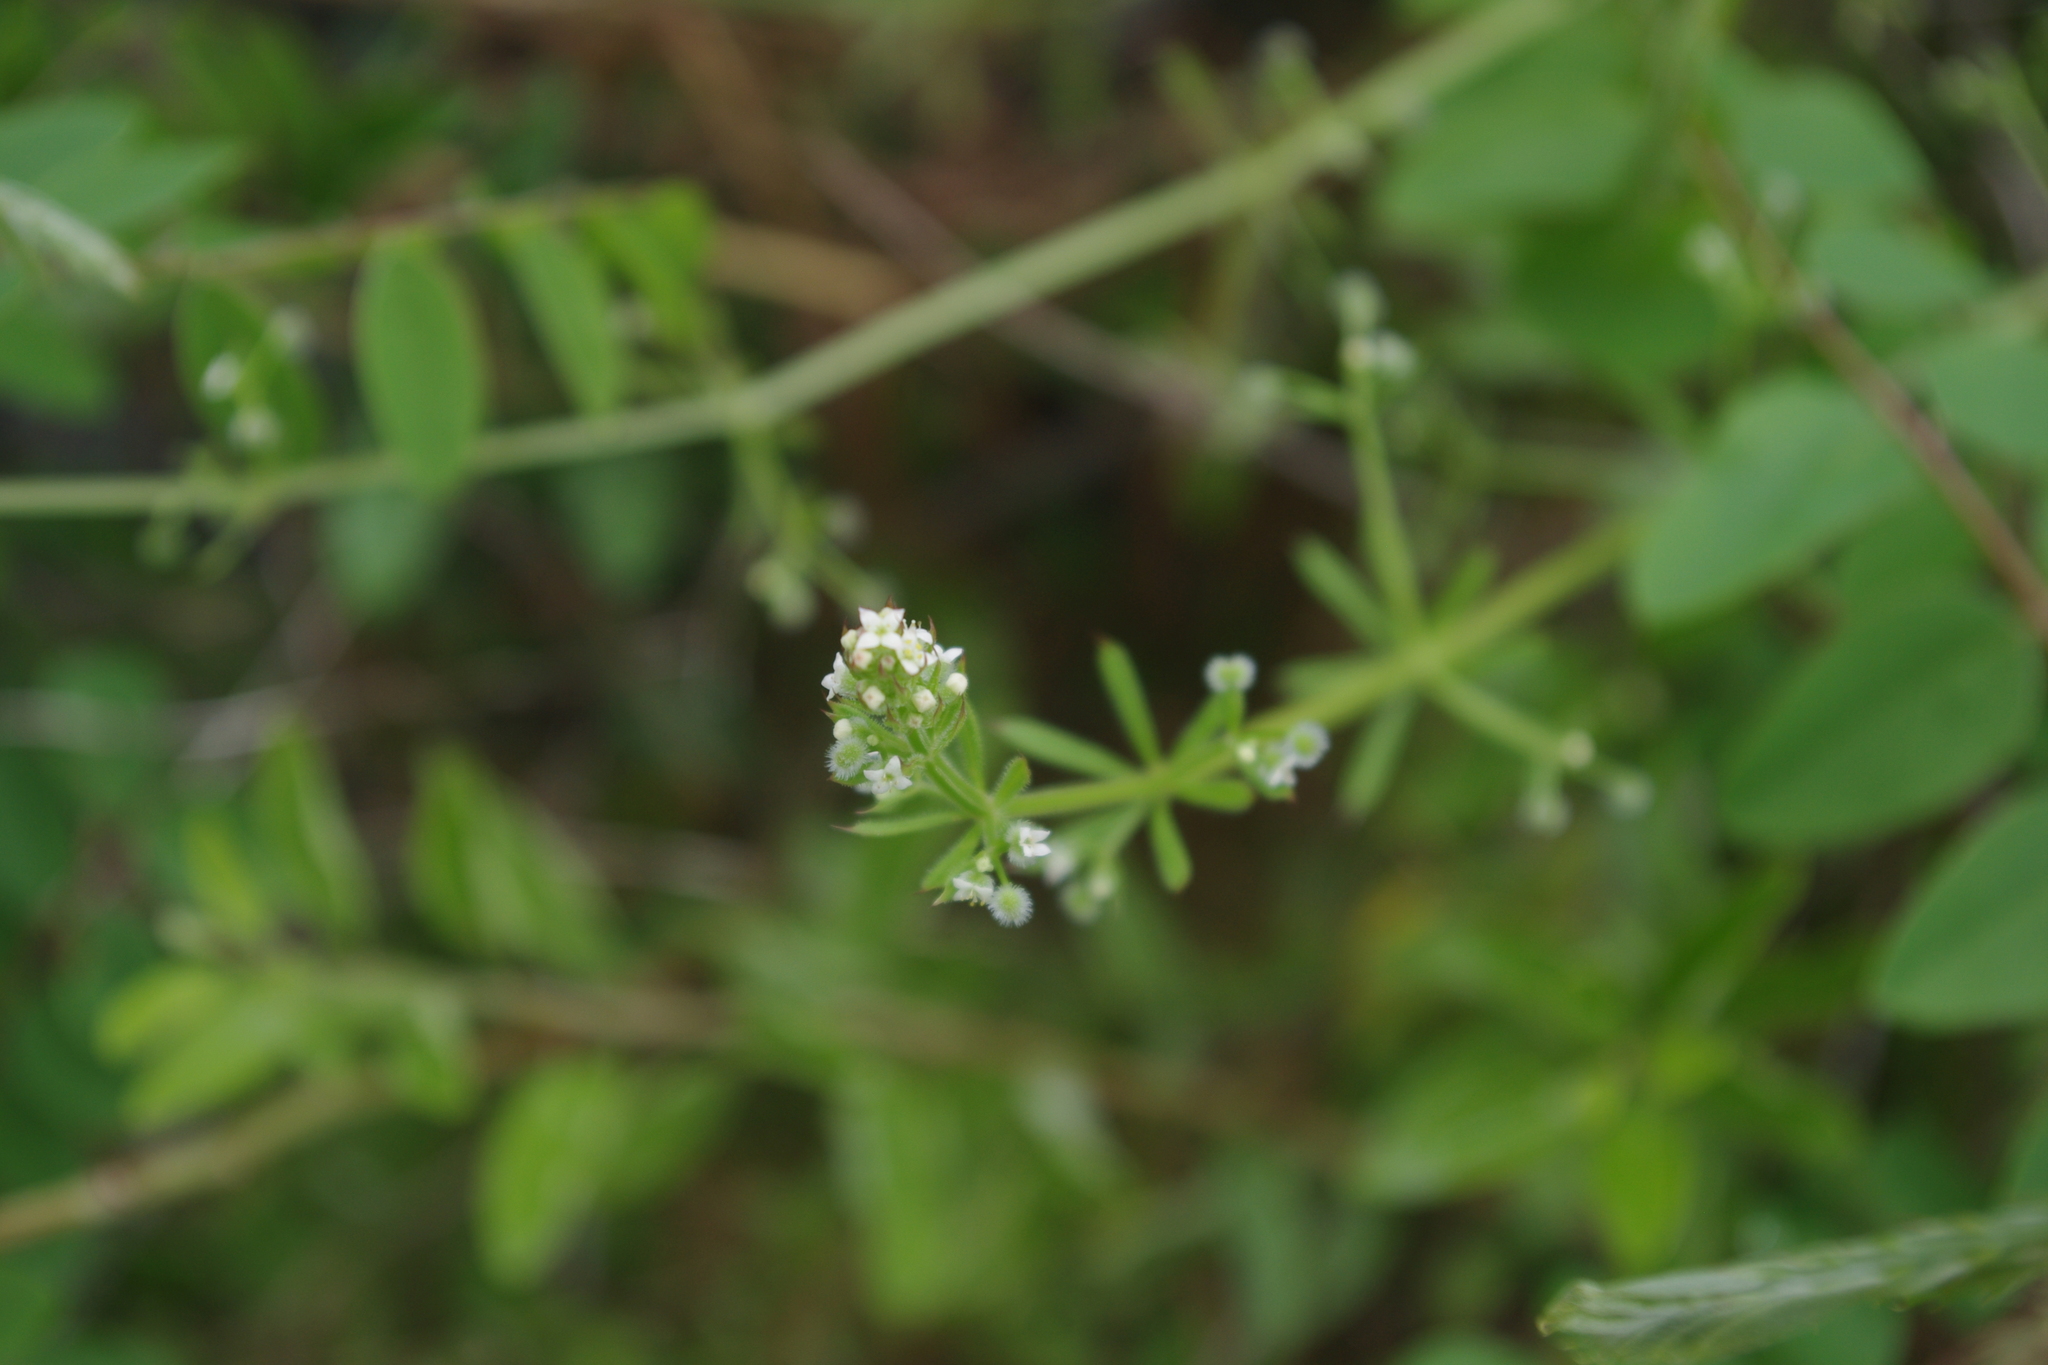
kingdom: Plantae
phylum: Tracheophyta
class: Magnoliopsida
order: Gentianales
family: Rubiaceae
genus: Galium
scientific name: Galium aparine
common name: Cleavers
